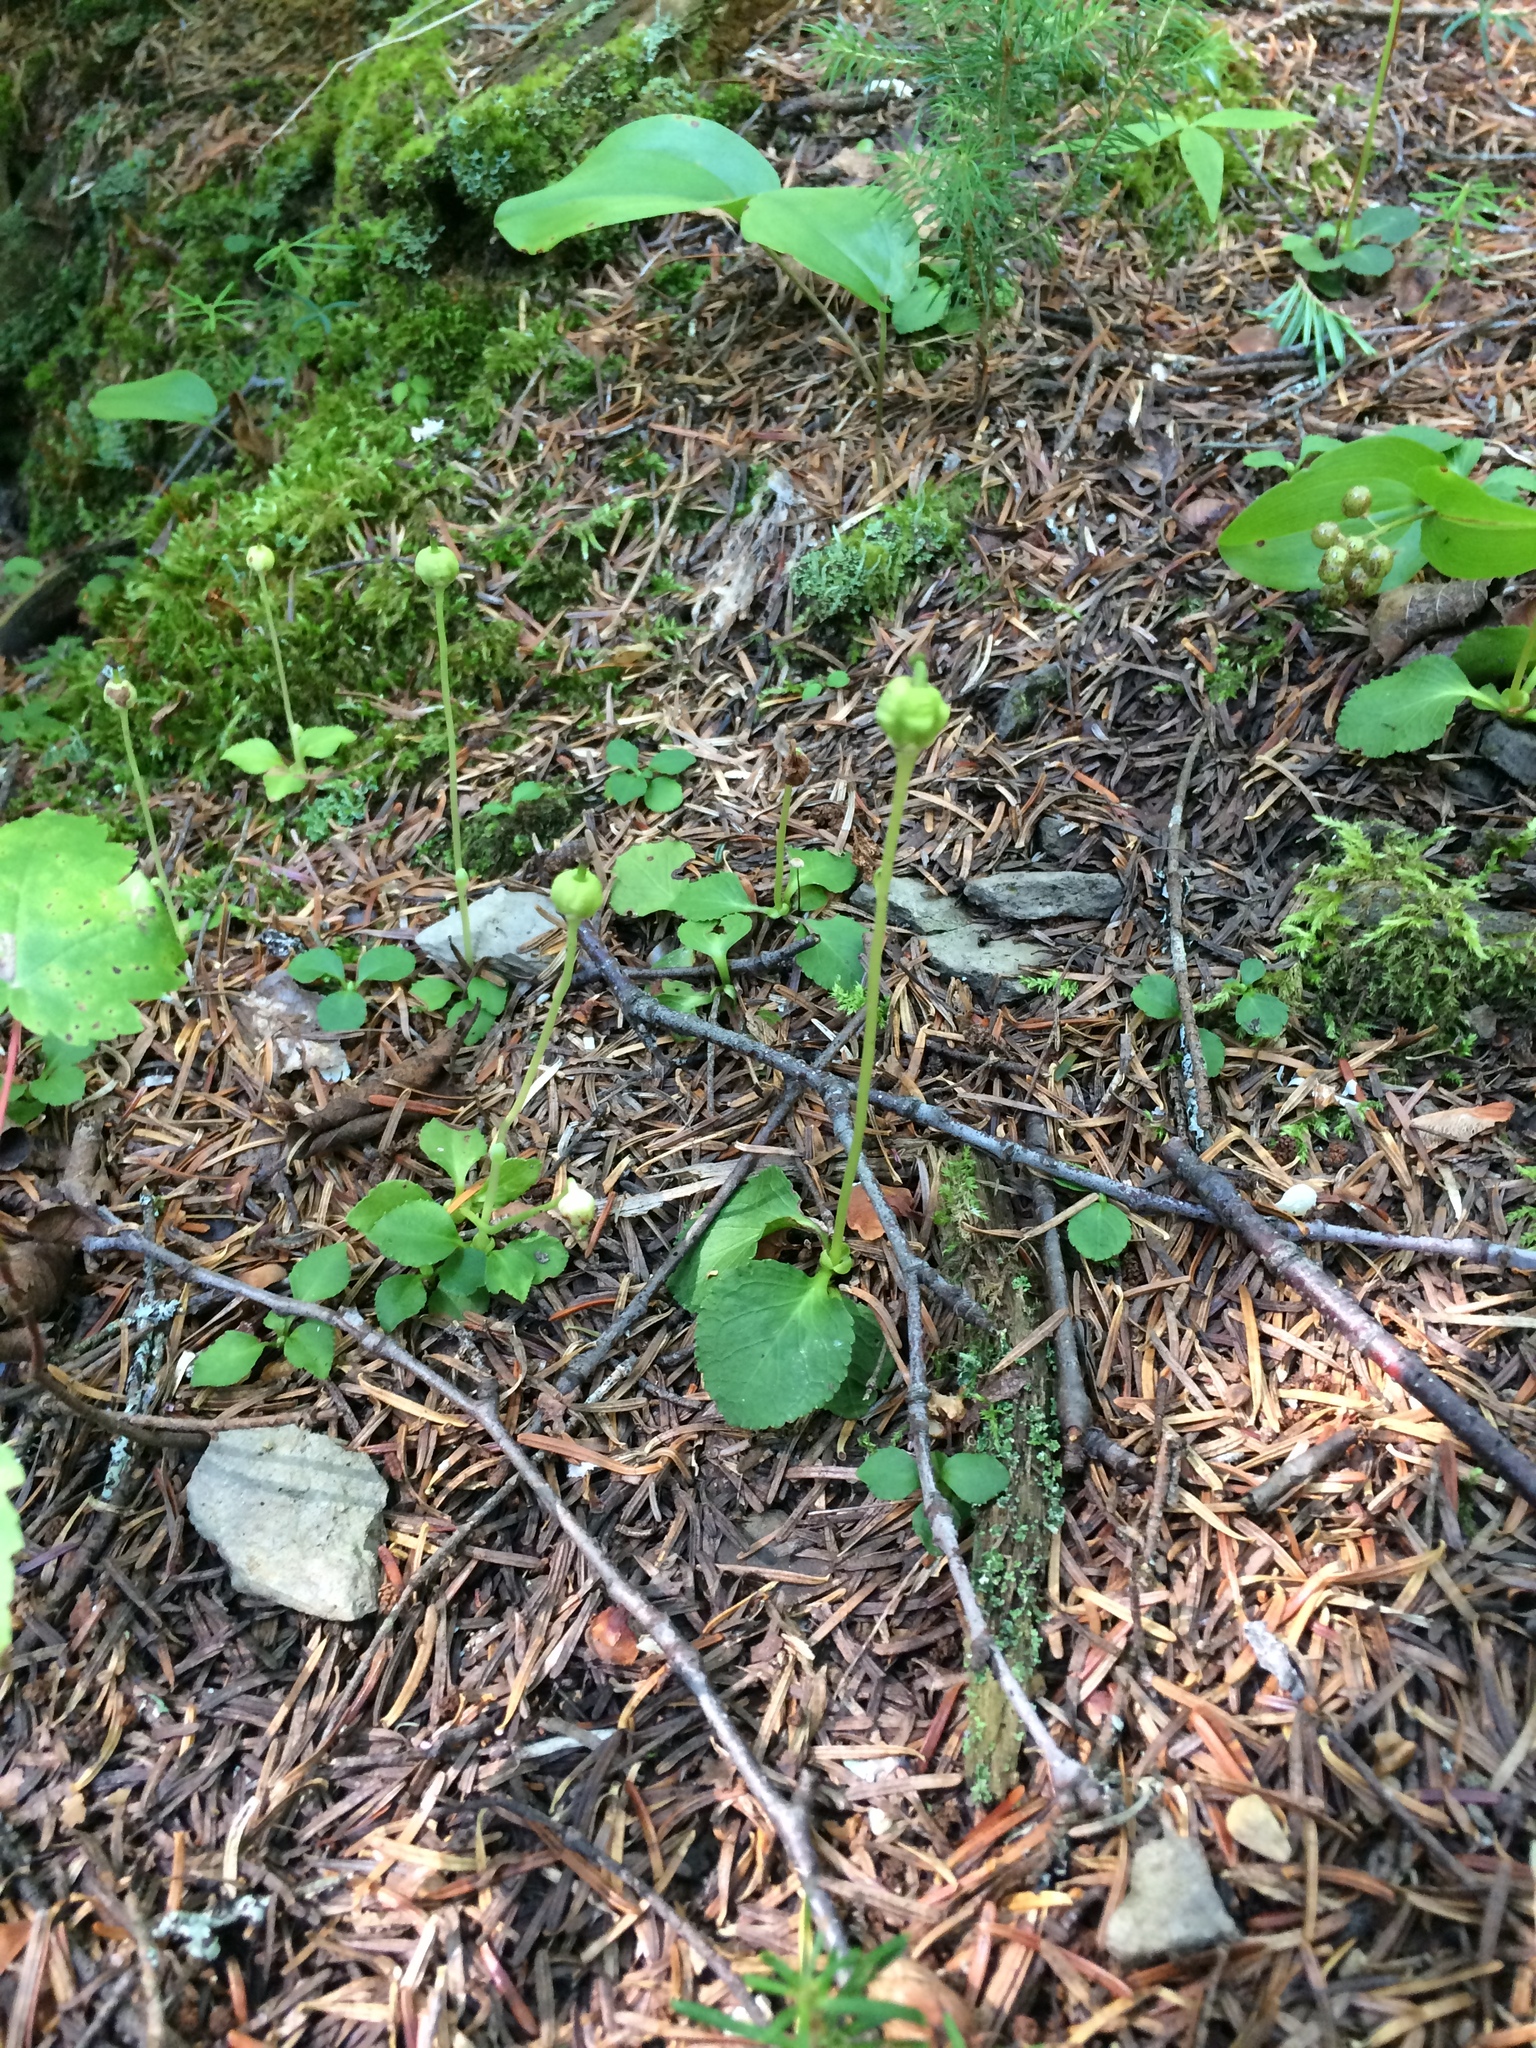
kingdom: Plantae
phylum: Tracheophyta
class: Magnoliopsida
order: Ericales
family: Ericaceae
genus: Moneses
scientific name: Moneses uniflora
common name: One-flowered wintergreen
